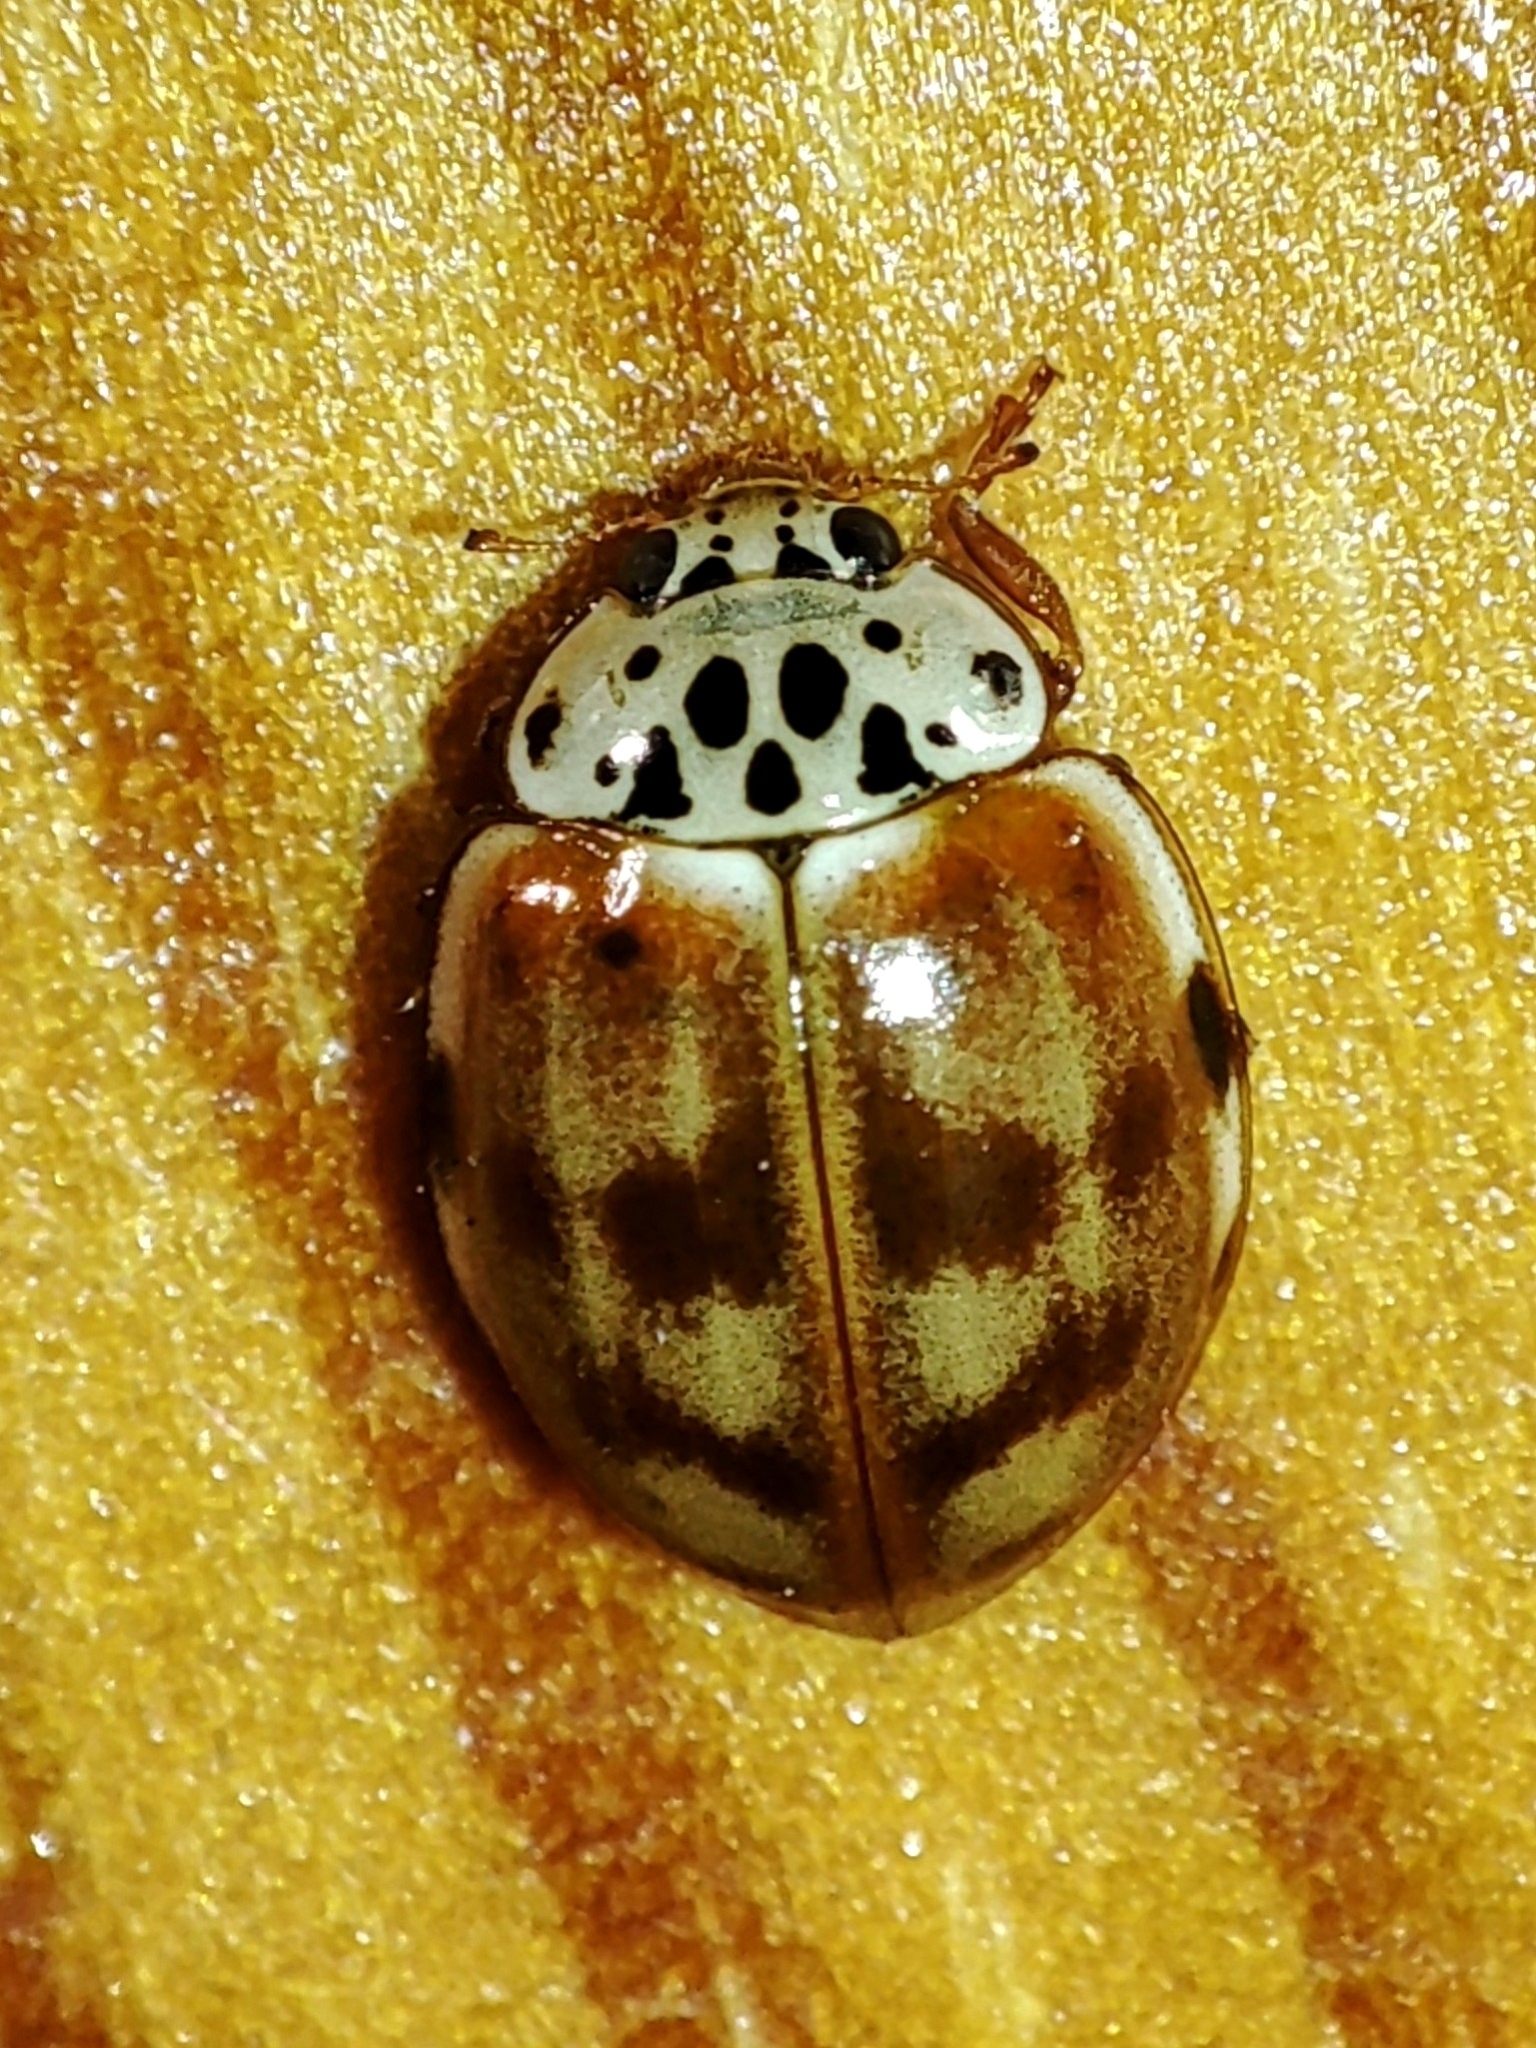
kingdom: Animalia
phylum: Arthropoda
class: Insecta
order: Coleoptera
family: Coccinellidae
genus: Harmonia
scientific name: Harmonia quadripunctata
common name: Cream-streaked ladybird
